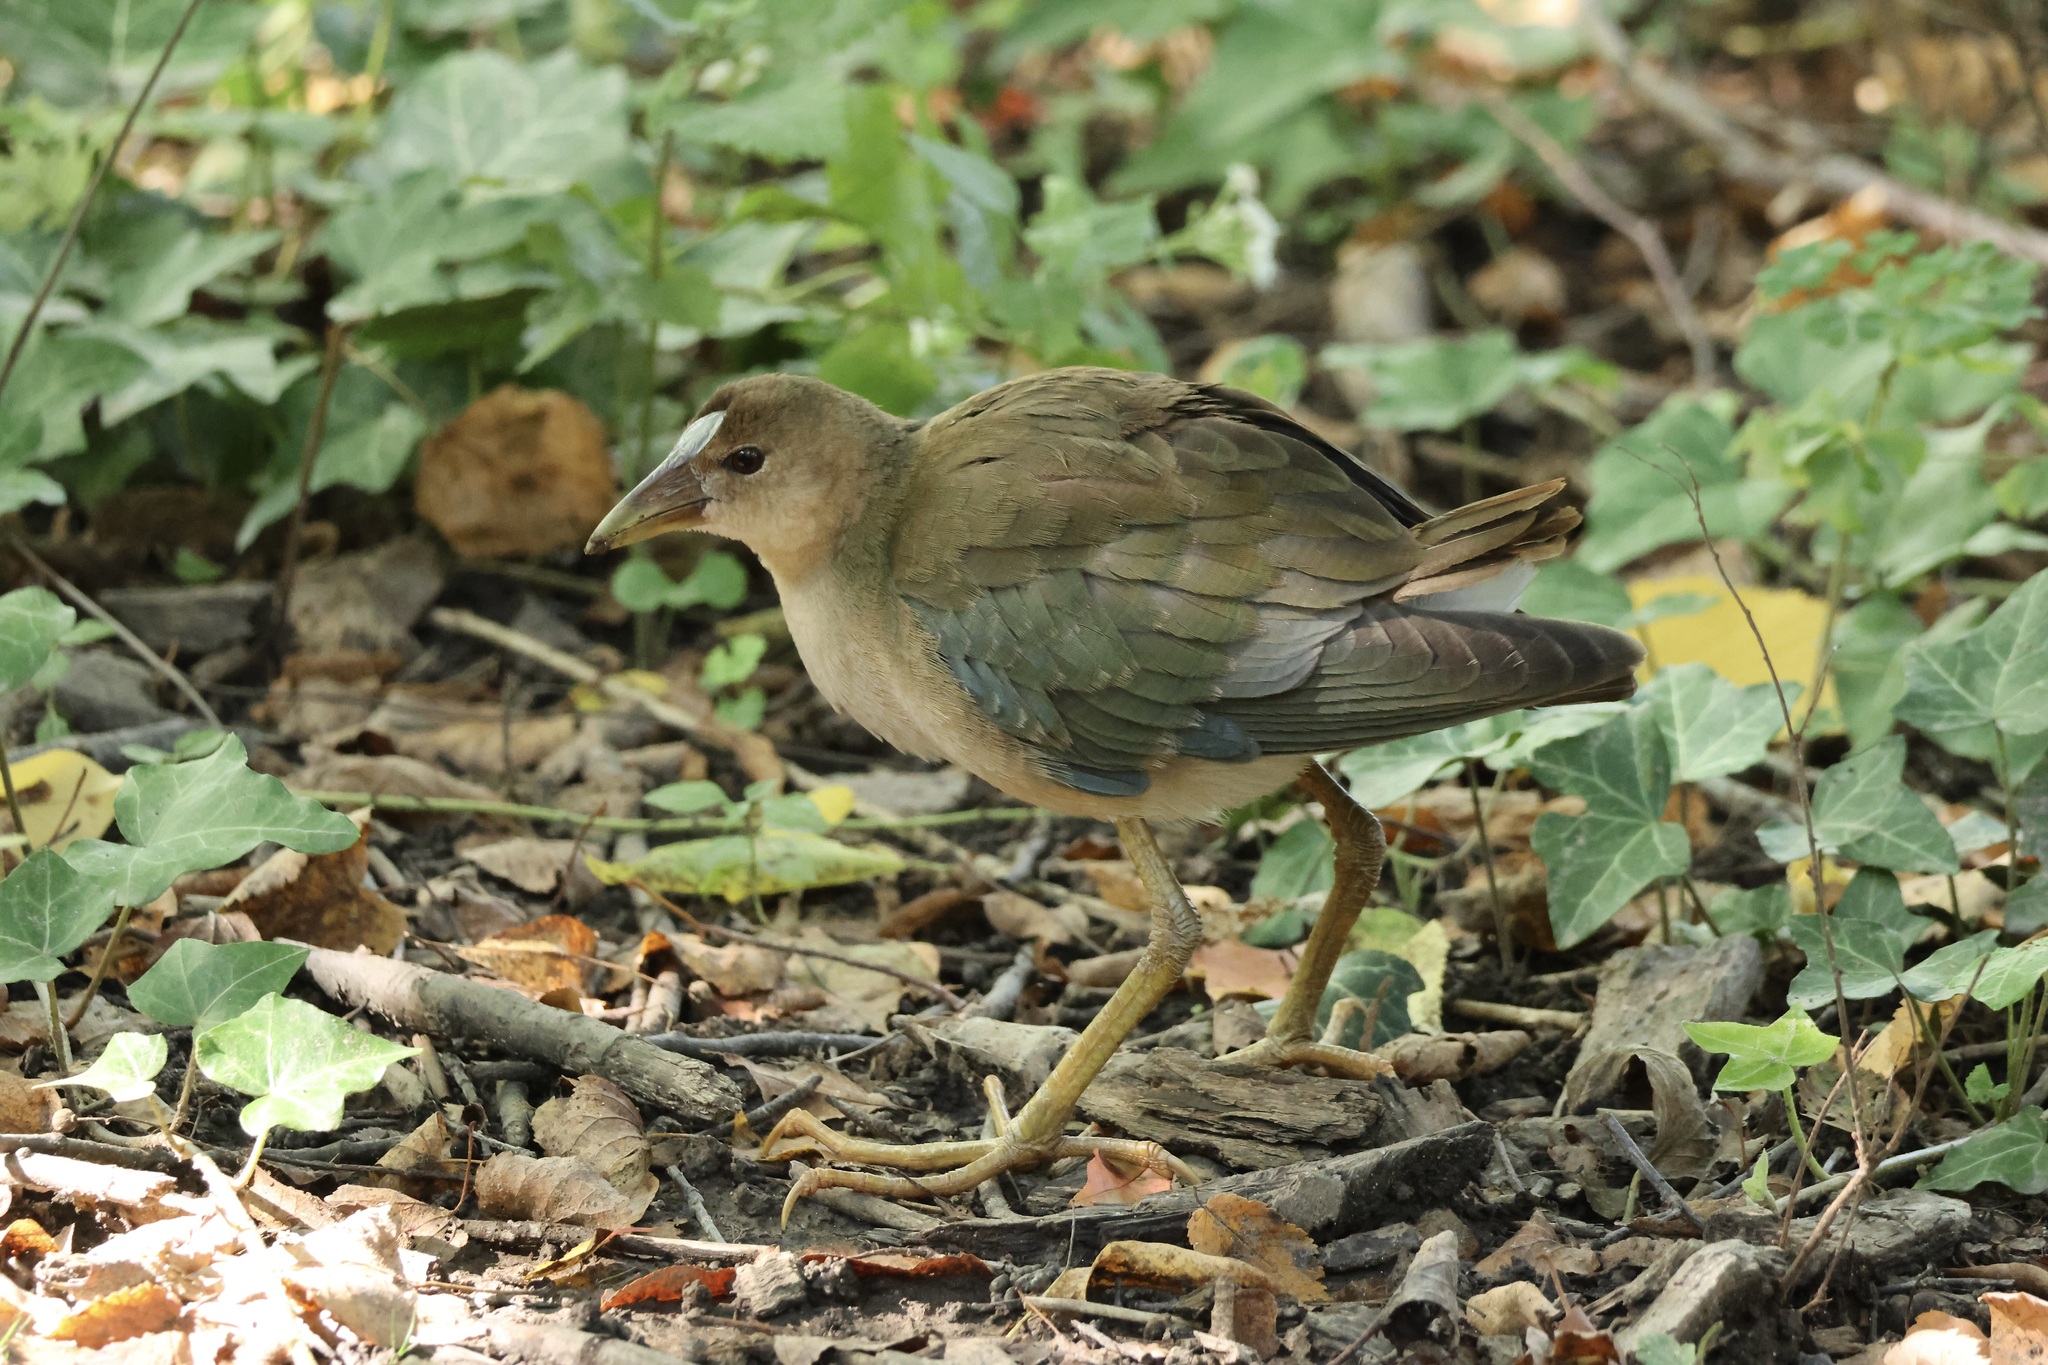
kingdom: Animalia
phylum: Chordata
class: Aves
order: Gruiformes
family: Rallidae
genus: Porphyrio
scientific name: Porphyrio martinica
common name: Purple gallinule
